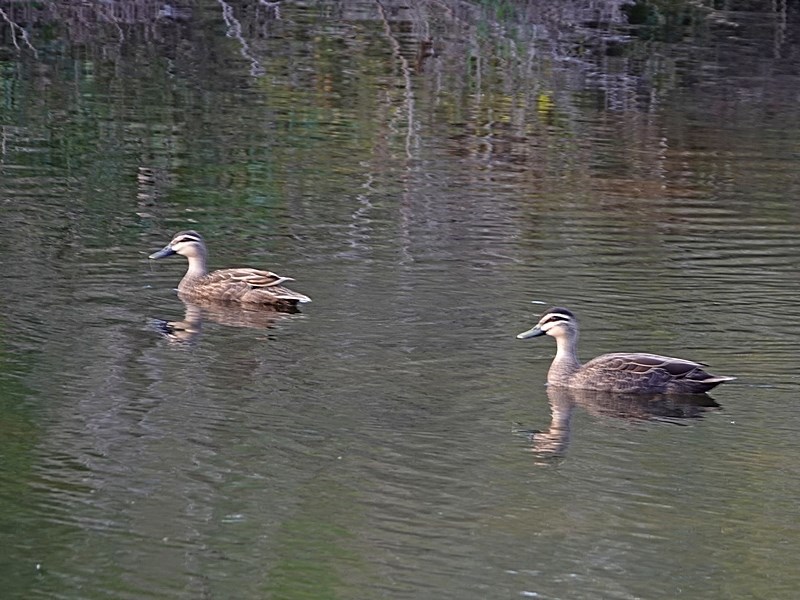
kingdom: Animalia
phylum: Chordata
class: Aves
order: Anseriformes
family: Anatidae
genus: Anas
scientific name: Anas superciliosa
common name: Pacific black duck
